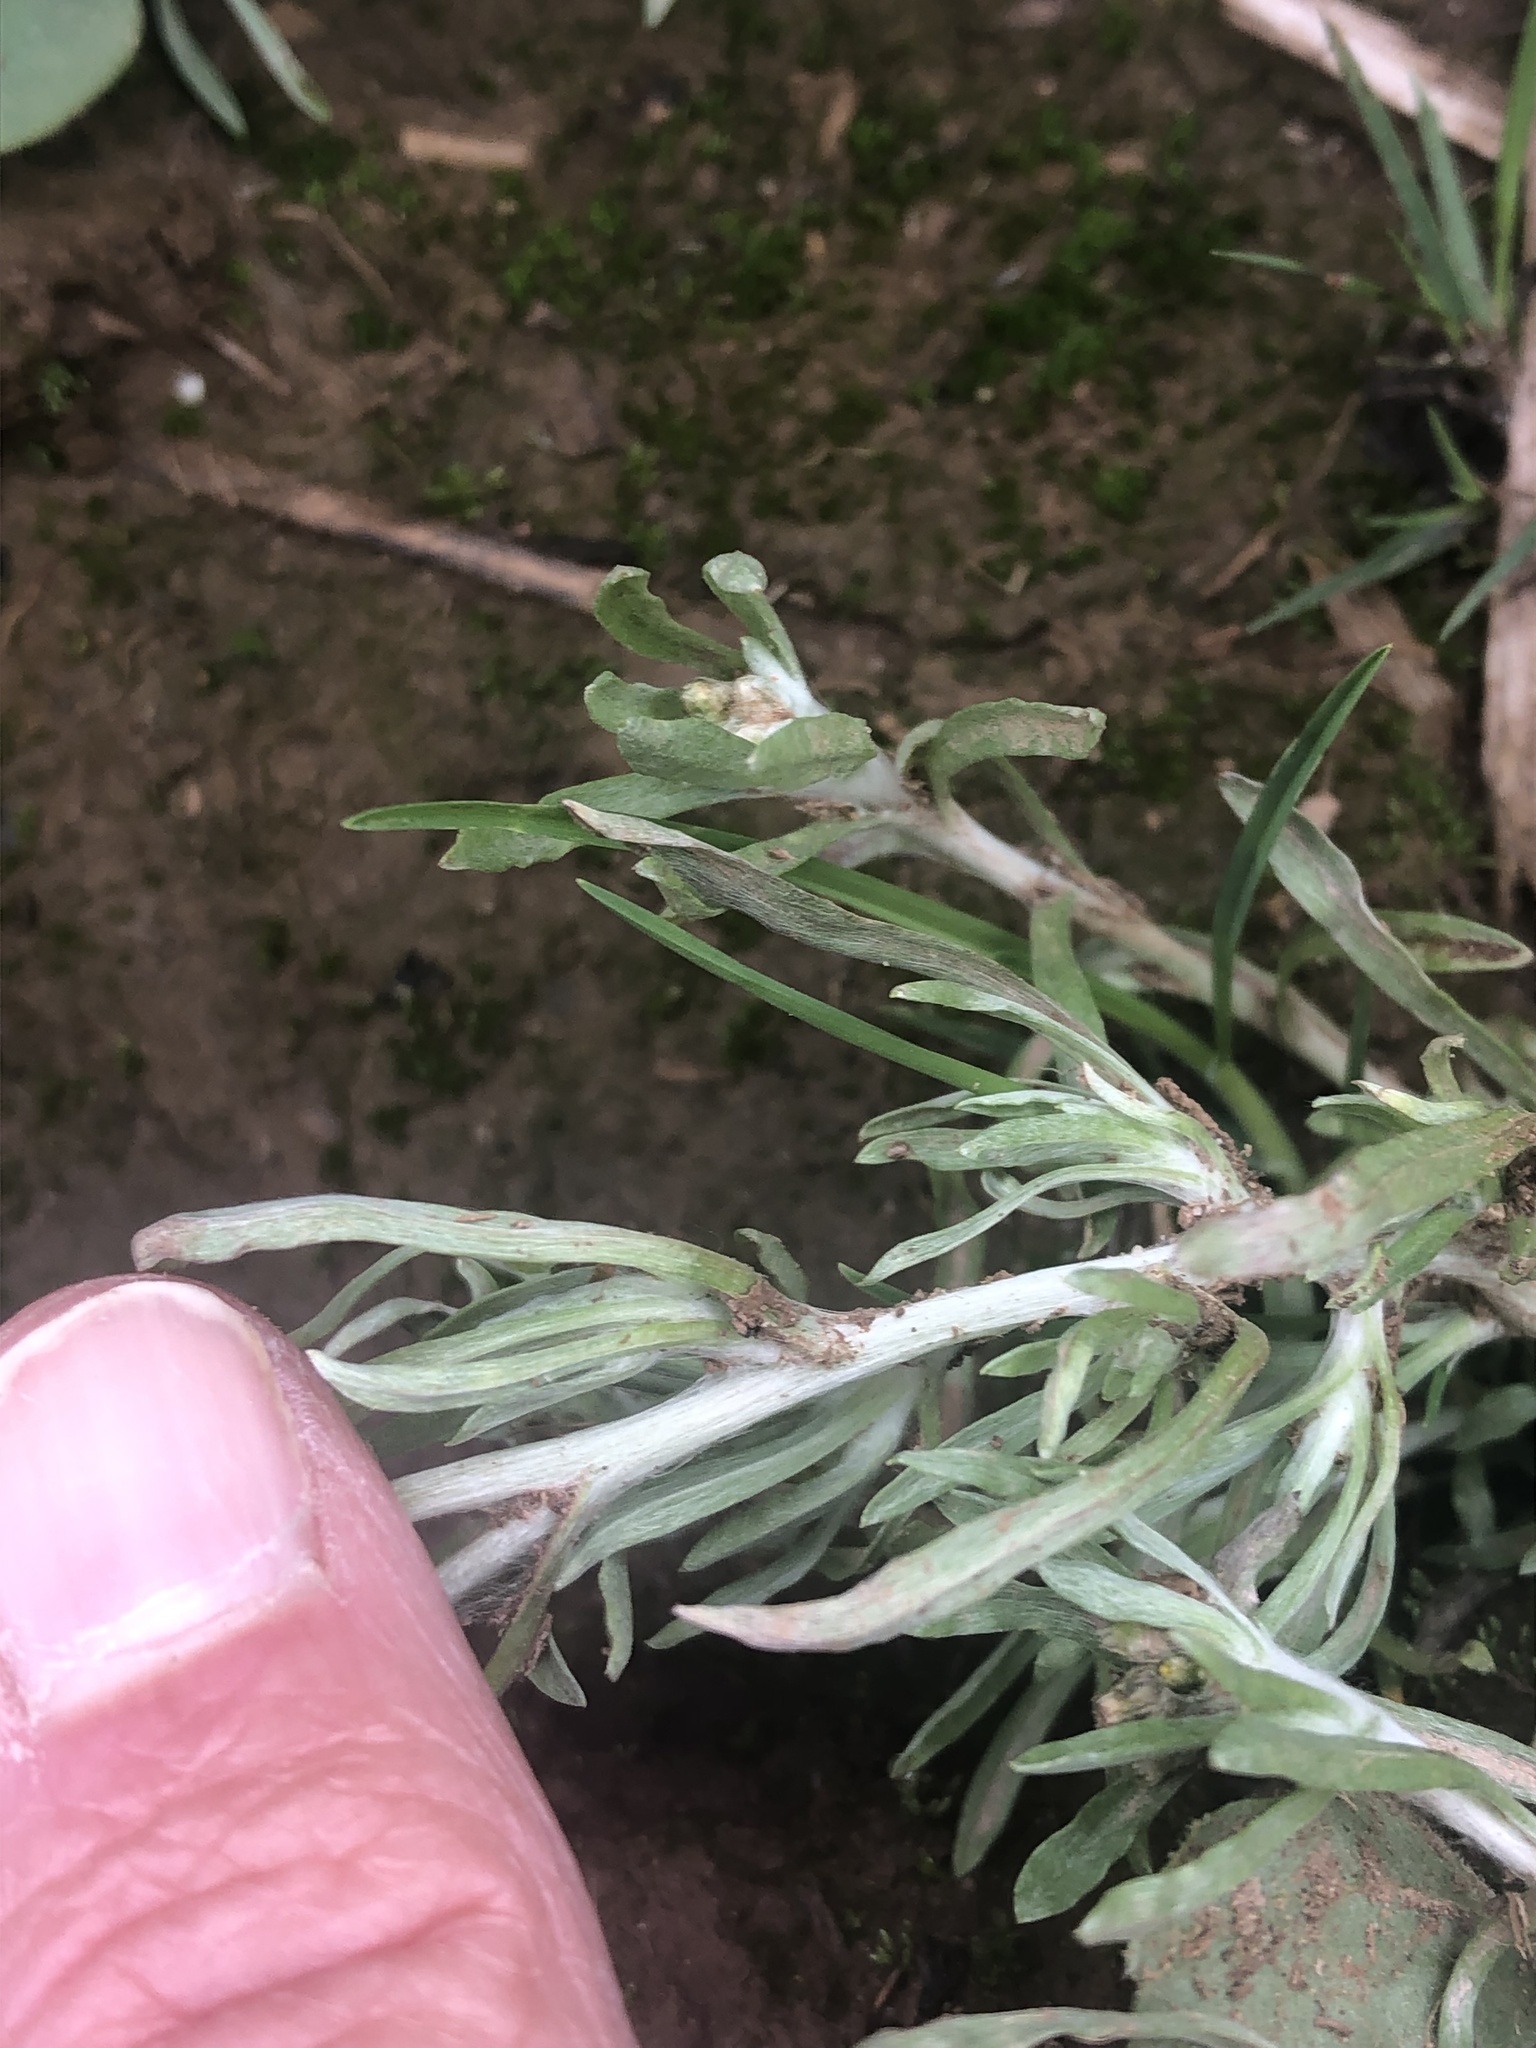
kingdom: Plantae
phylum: Tracheophyta
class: Magnoliopsida
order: Asterales
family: Asteraceae
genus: Gnaphalium
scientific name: Gnaphalium uliginosum
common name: Marsh cudweed
